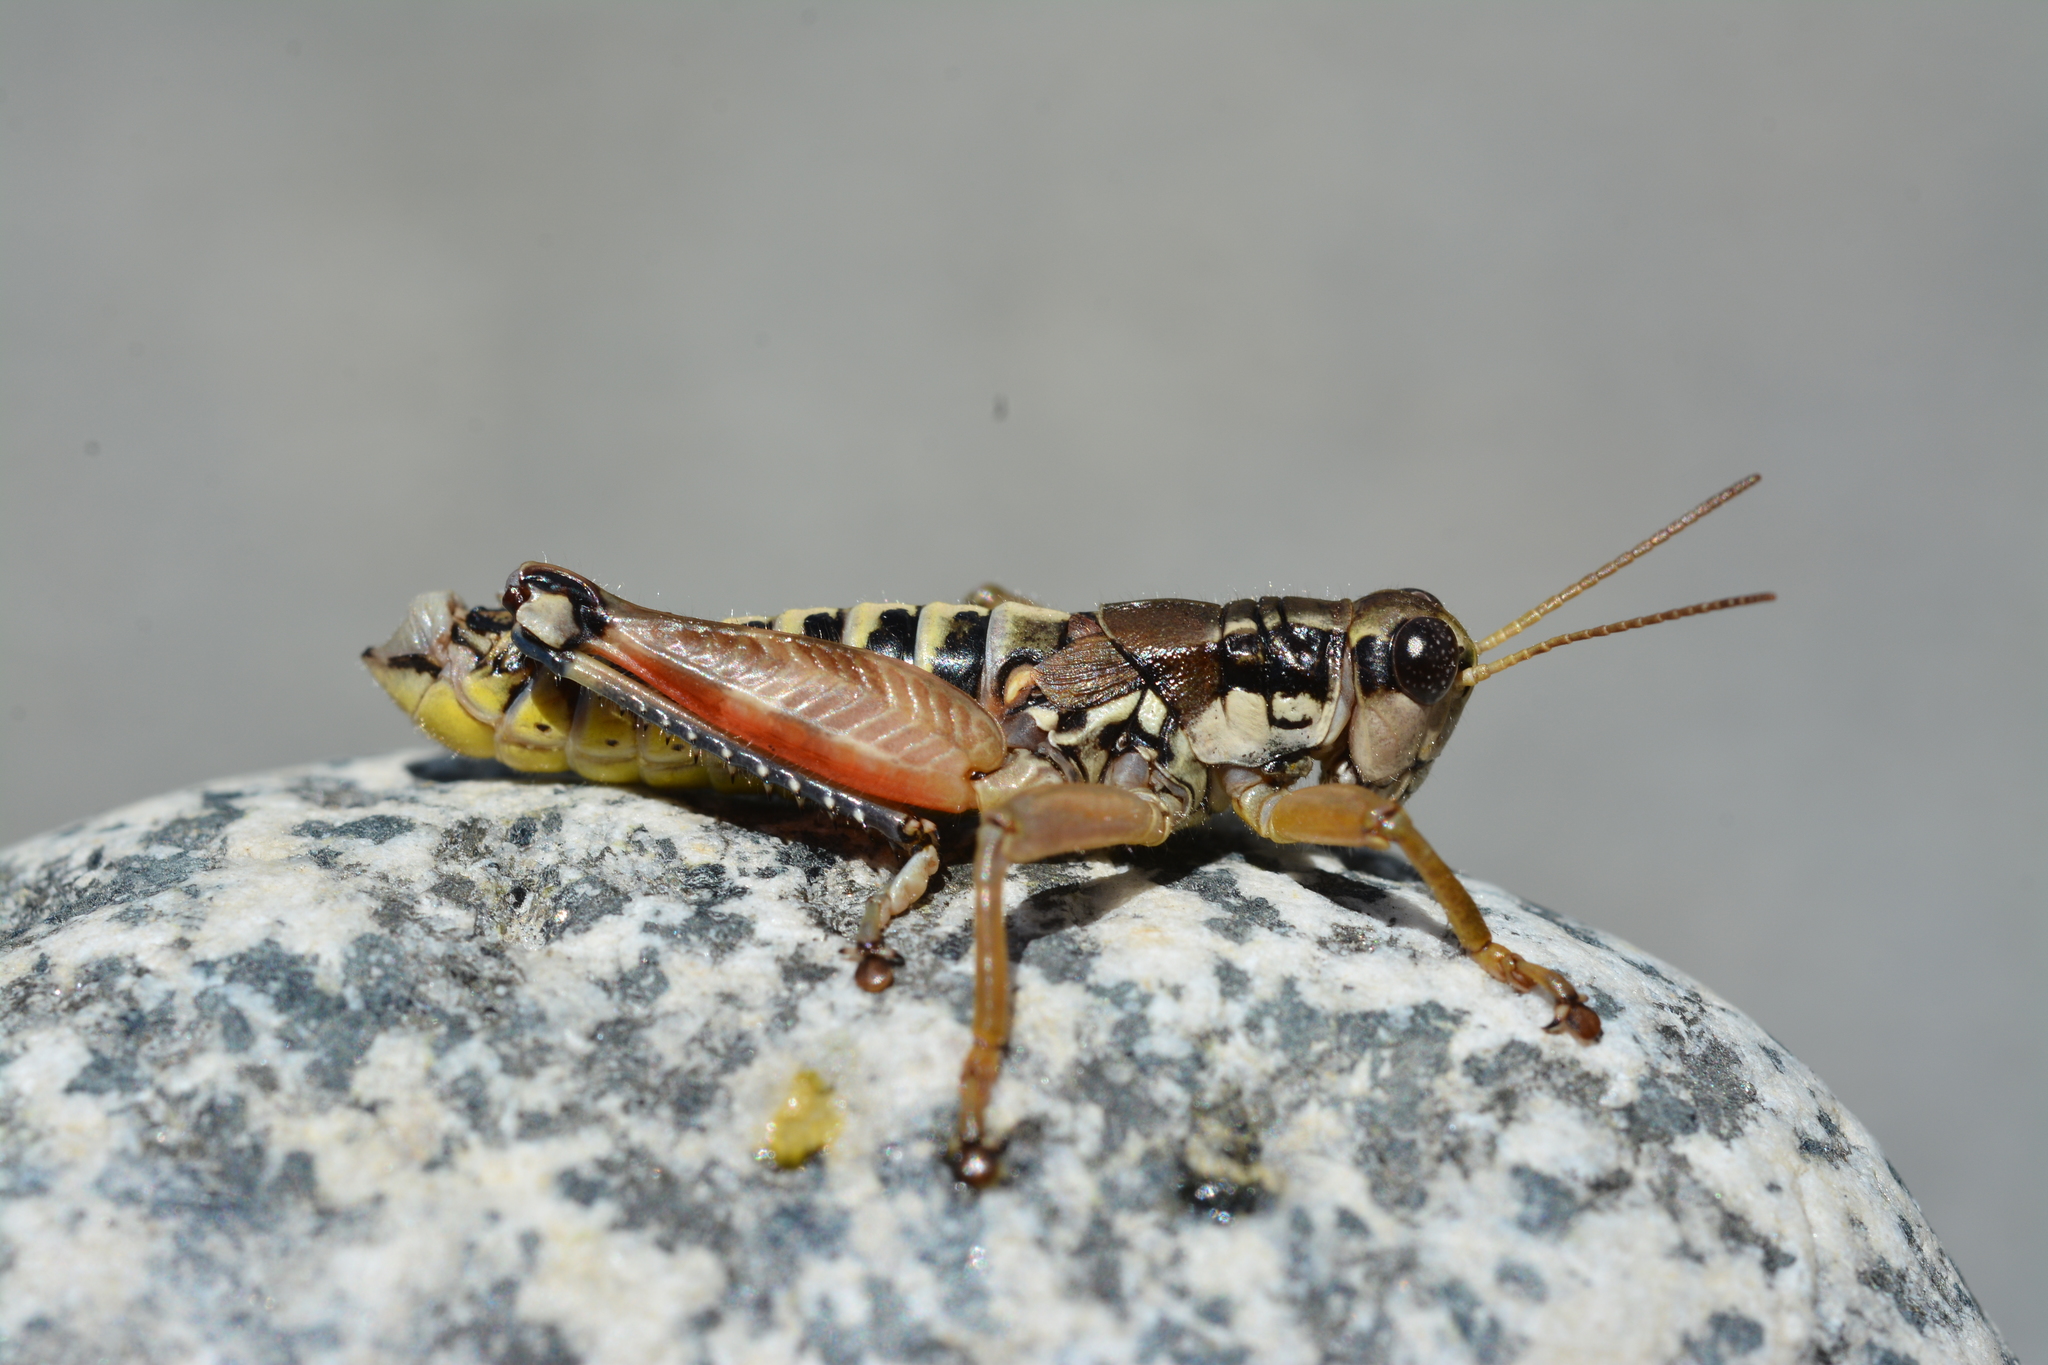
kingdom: Animalia
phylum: Arthropoda
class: Insecta
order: Orthoptera
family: Acrididae
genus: Podisma
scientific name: Podisma pedestris
